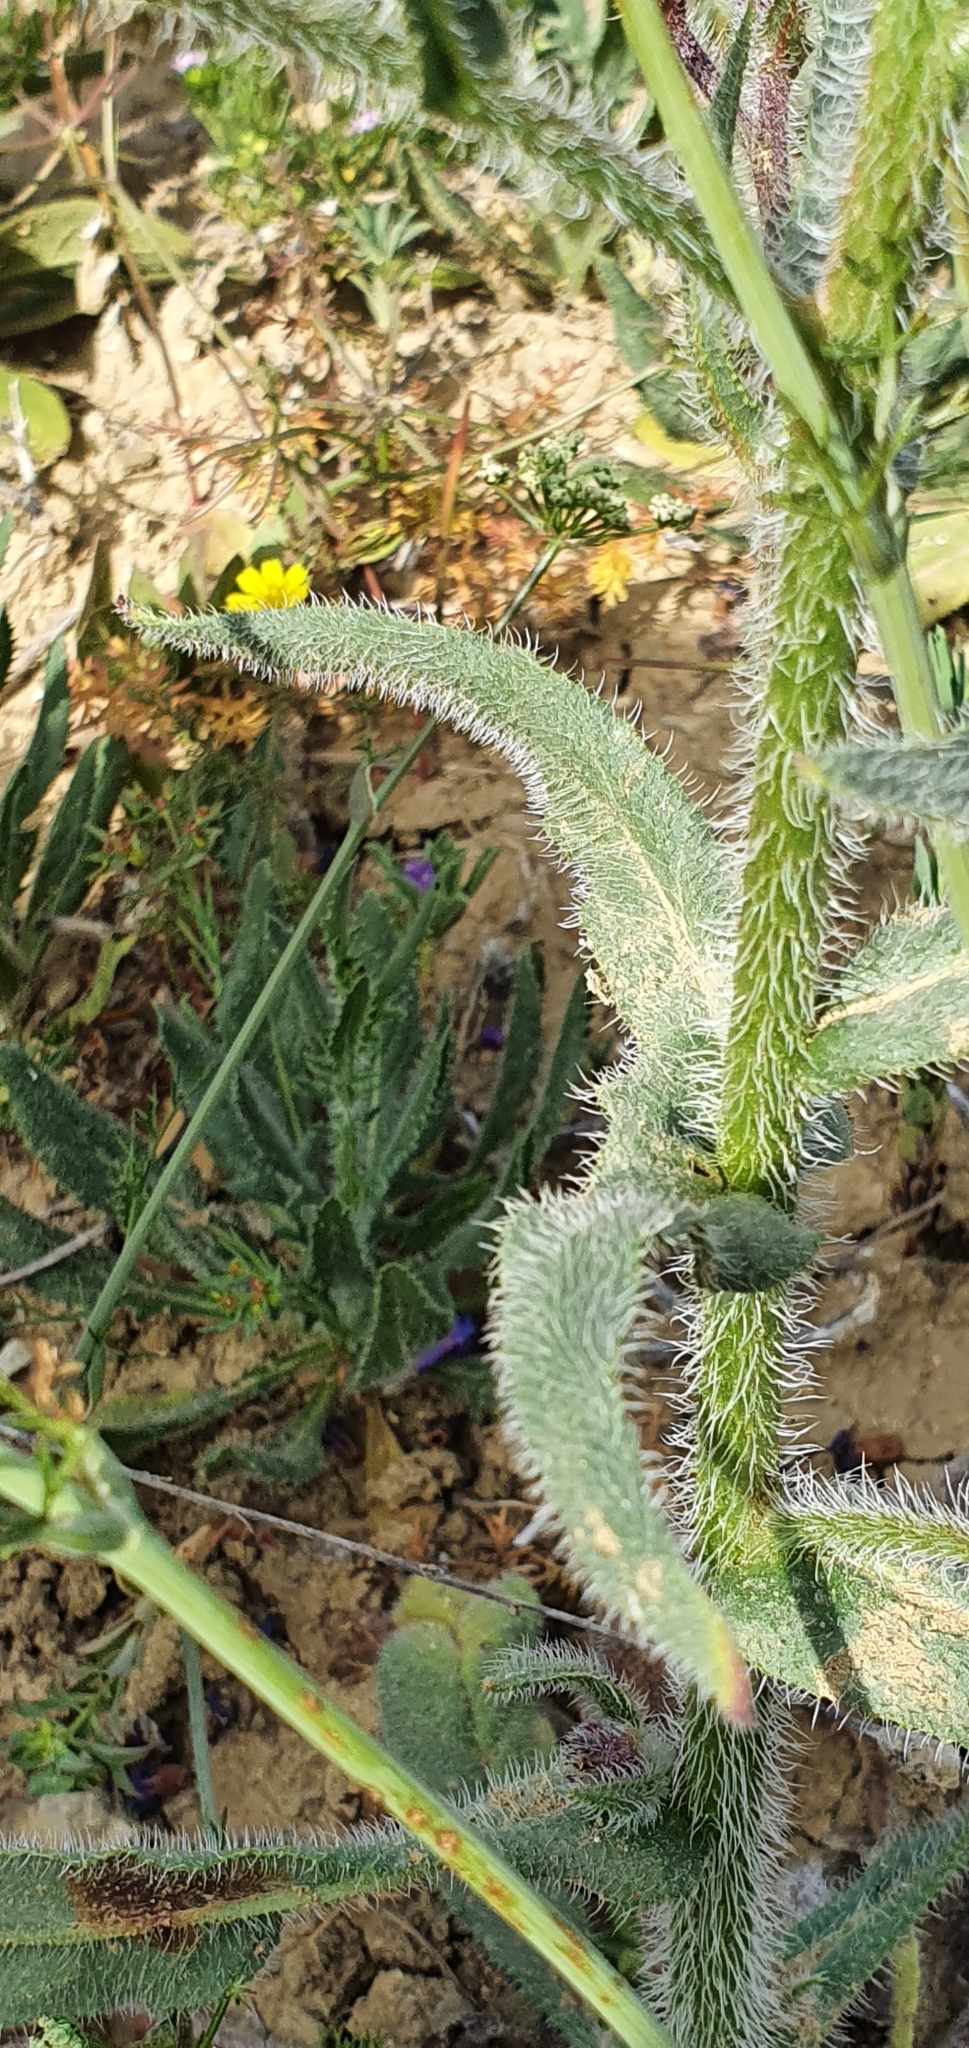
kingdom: Plantae
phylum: Tracheophyta
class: Magnoliopsida
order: Boraginales
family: Boraginaceae
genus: Anchusa
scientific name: Anchusa azurea
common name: Garden anchusa
